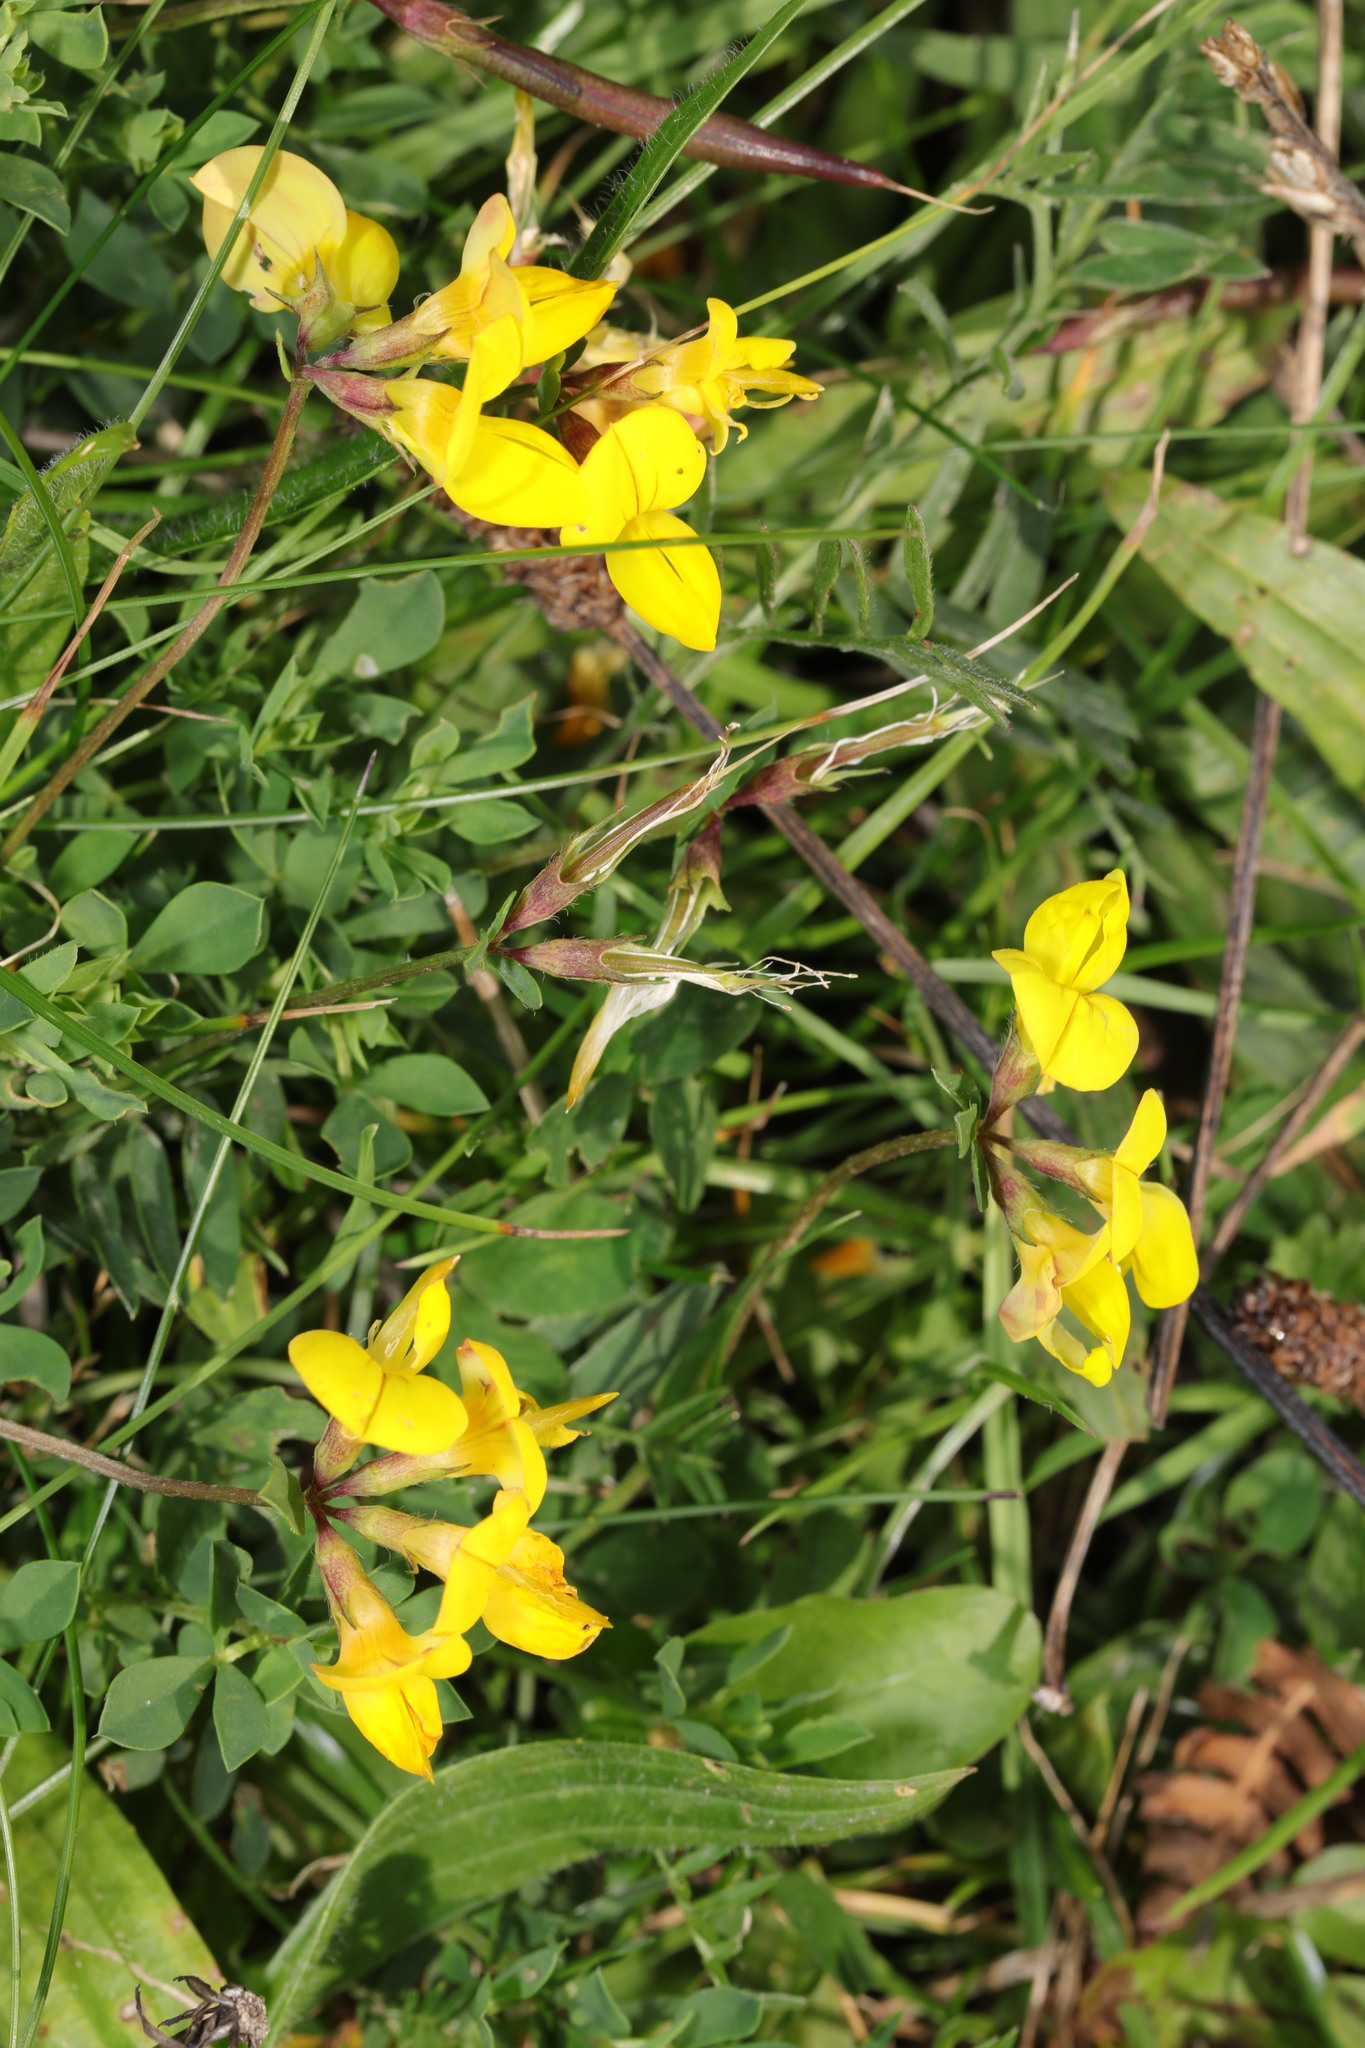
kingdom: Plantae
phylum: Tracheophyta
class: Magnoliopsida
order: Fabales
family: Fabaceae
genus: Lotus
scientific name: Lotus corniculatus
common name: Common bird's-foot-trefoil
